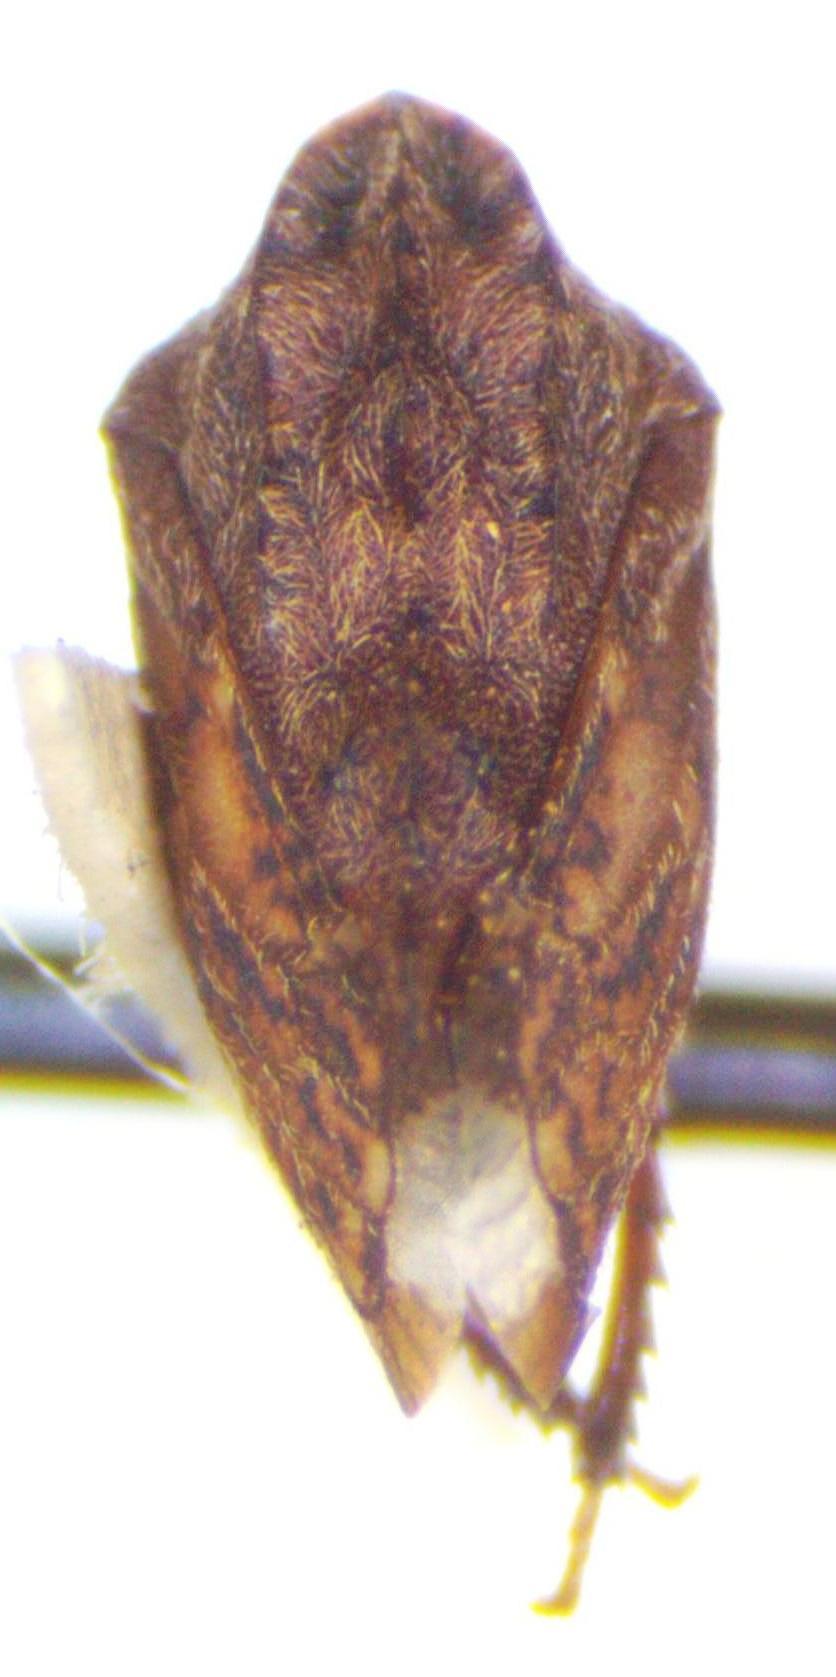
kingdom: Animalia
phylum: Arthropoda
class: Insecta
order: Hemiptera
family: Membracidae
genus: Tylopelta
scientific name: Tylopelta gibbera
